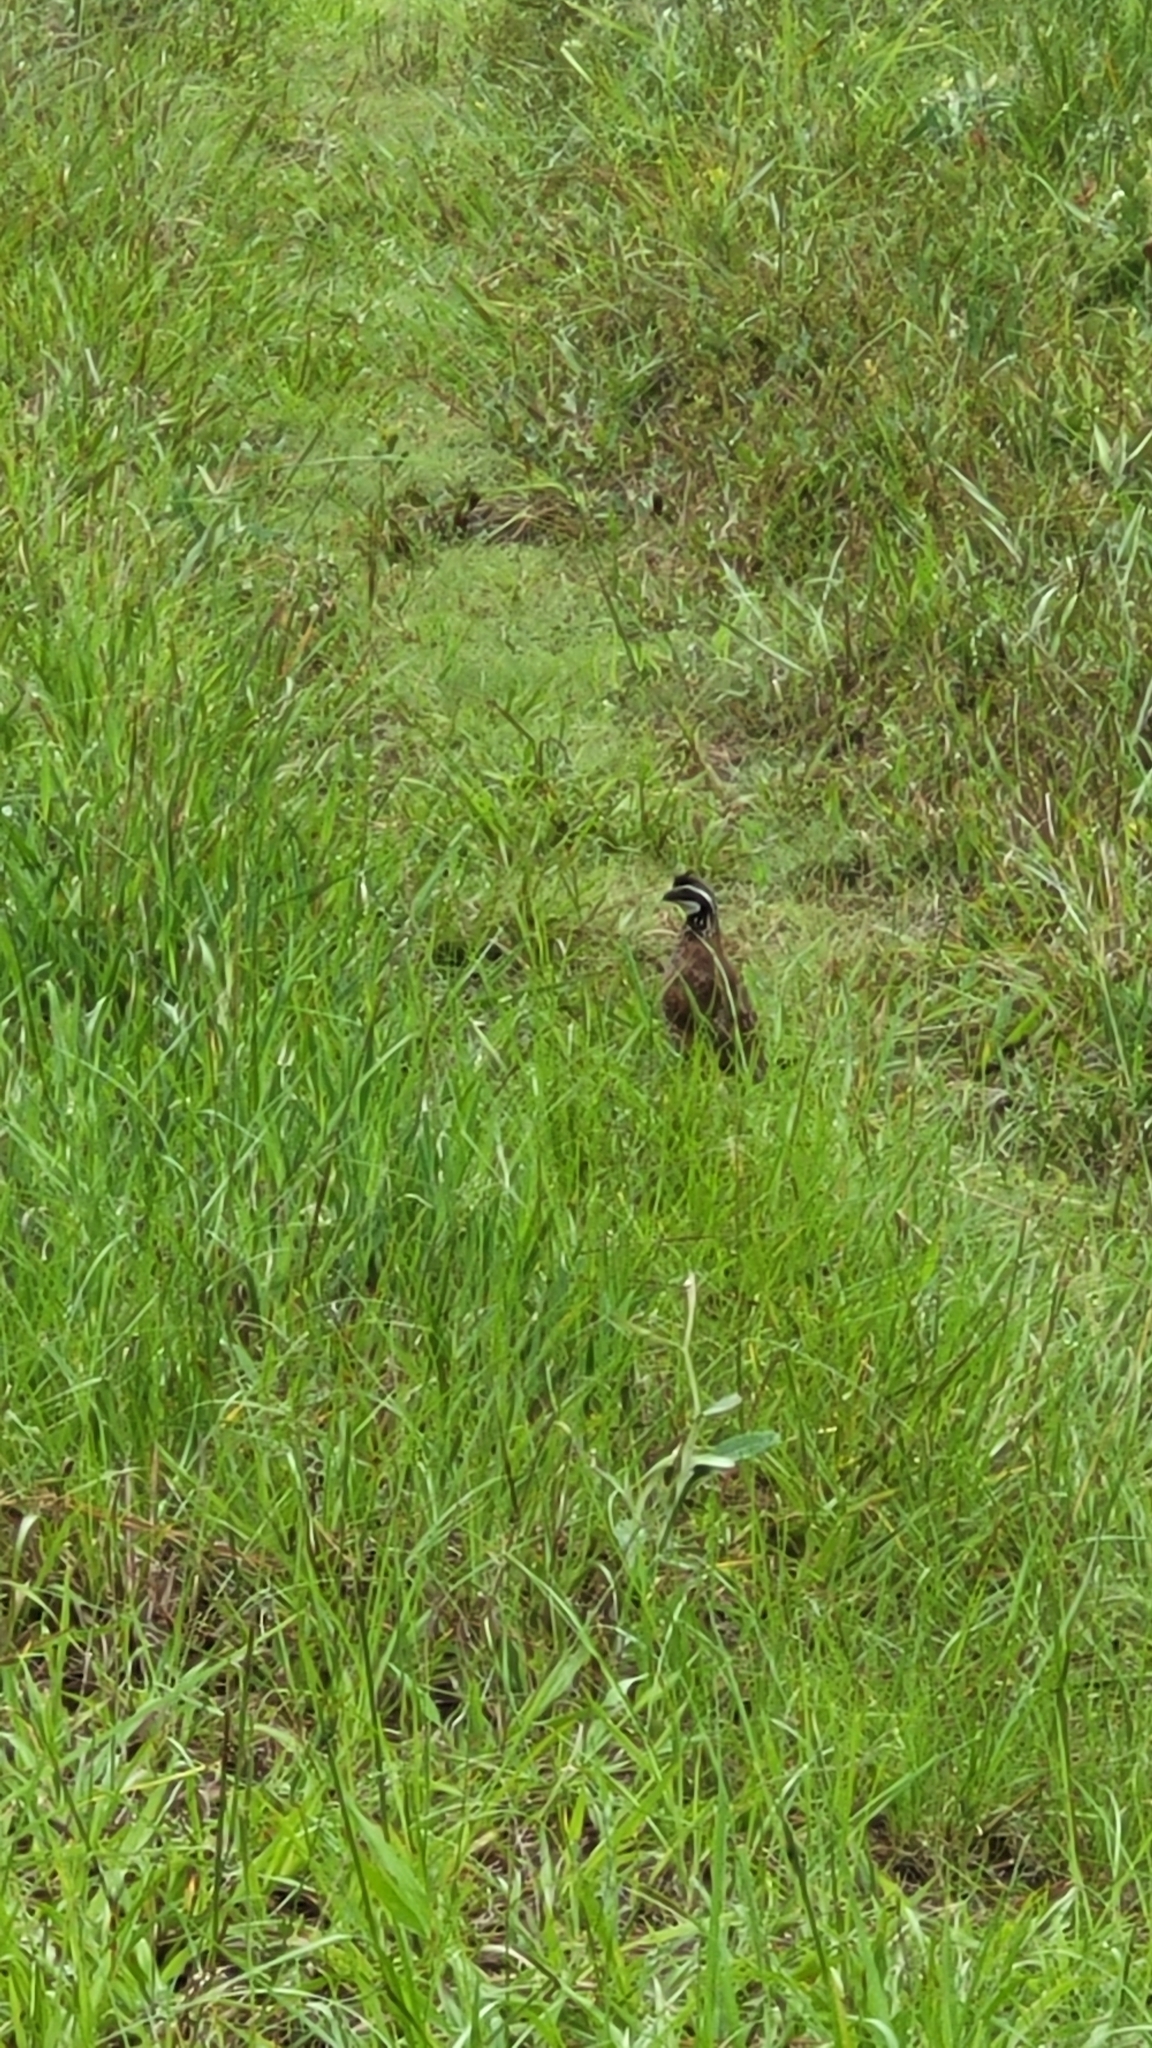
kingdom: Animalia
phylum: Chordata
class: Aves
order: Galliformes
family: Odontophoridae
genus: Colinus
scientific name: Colinus virginianus
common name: Northern bobwhite
